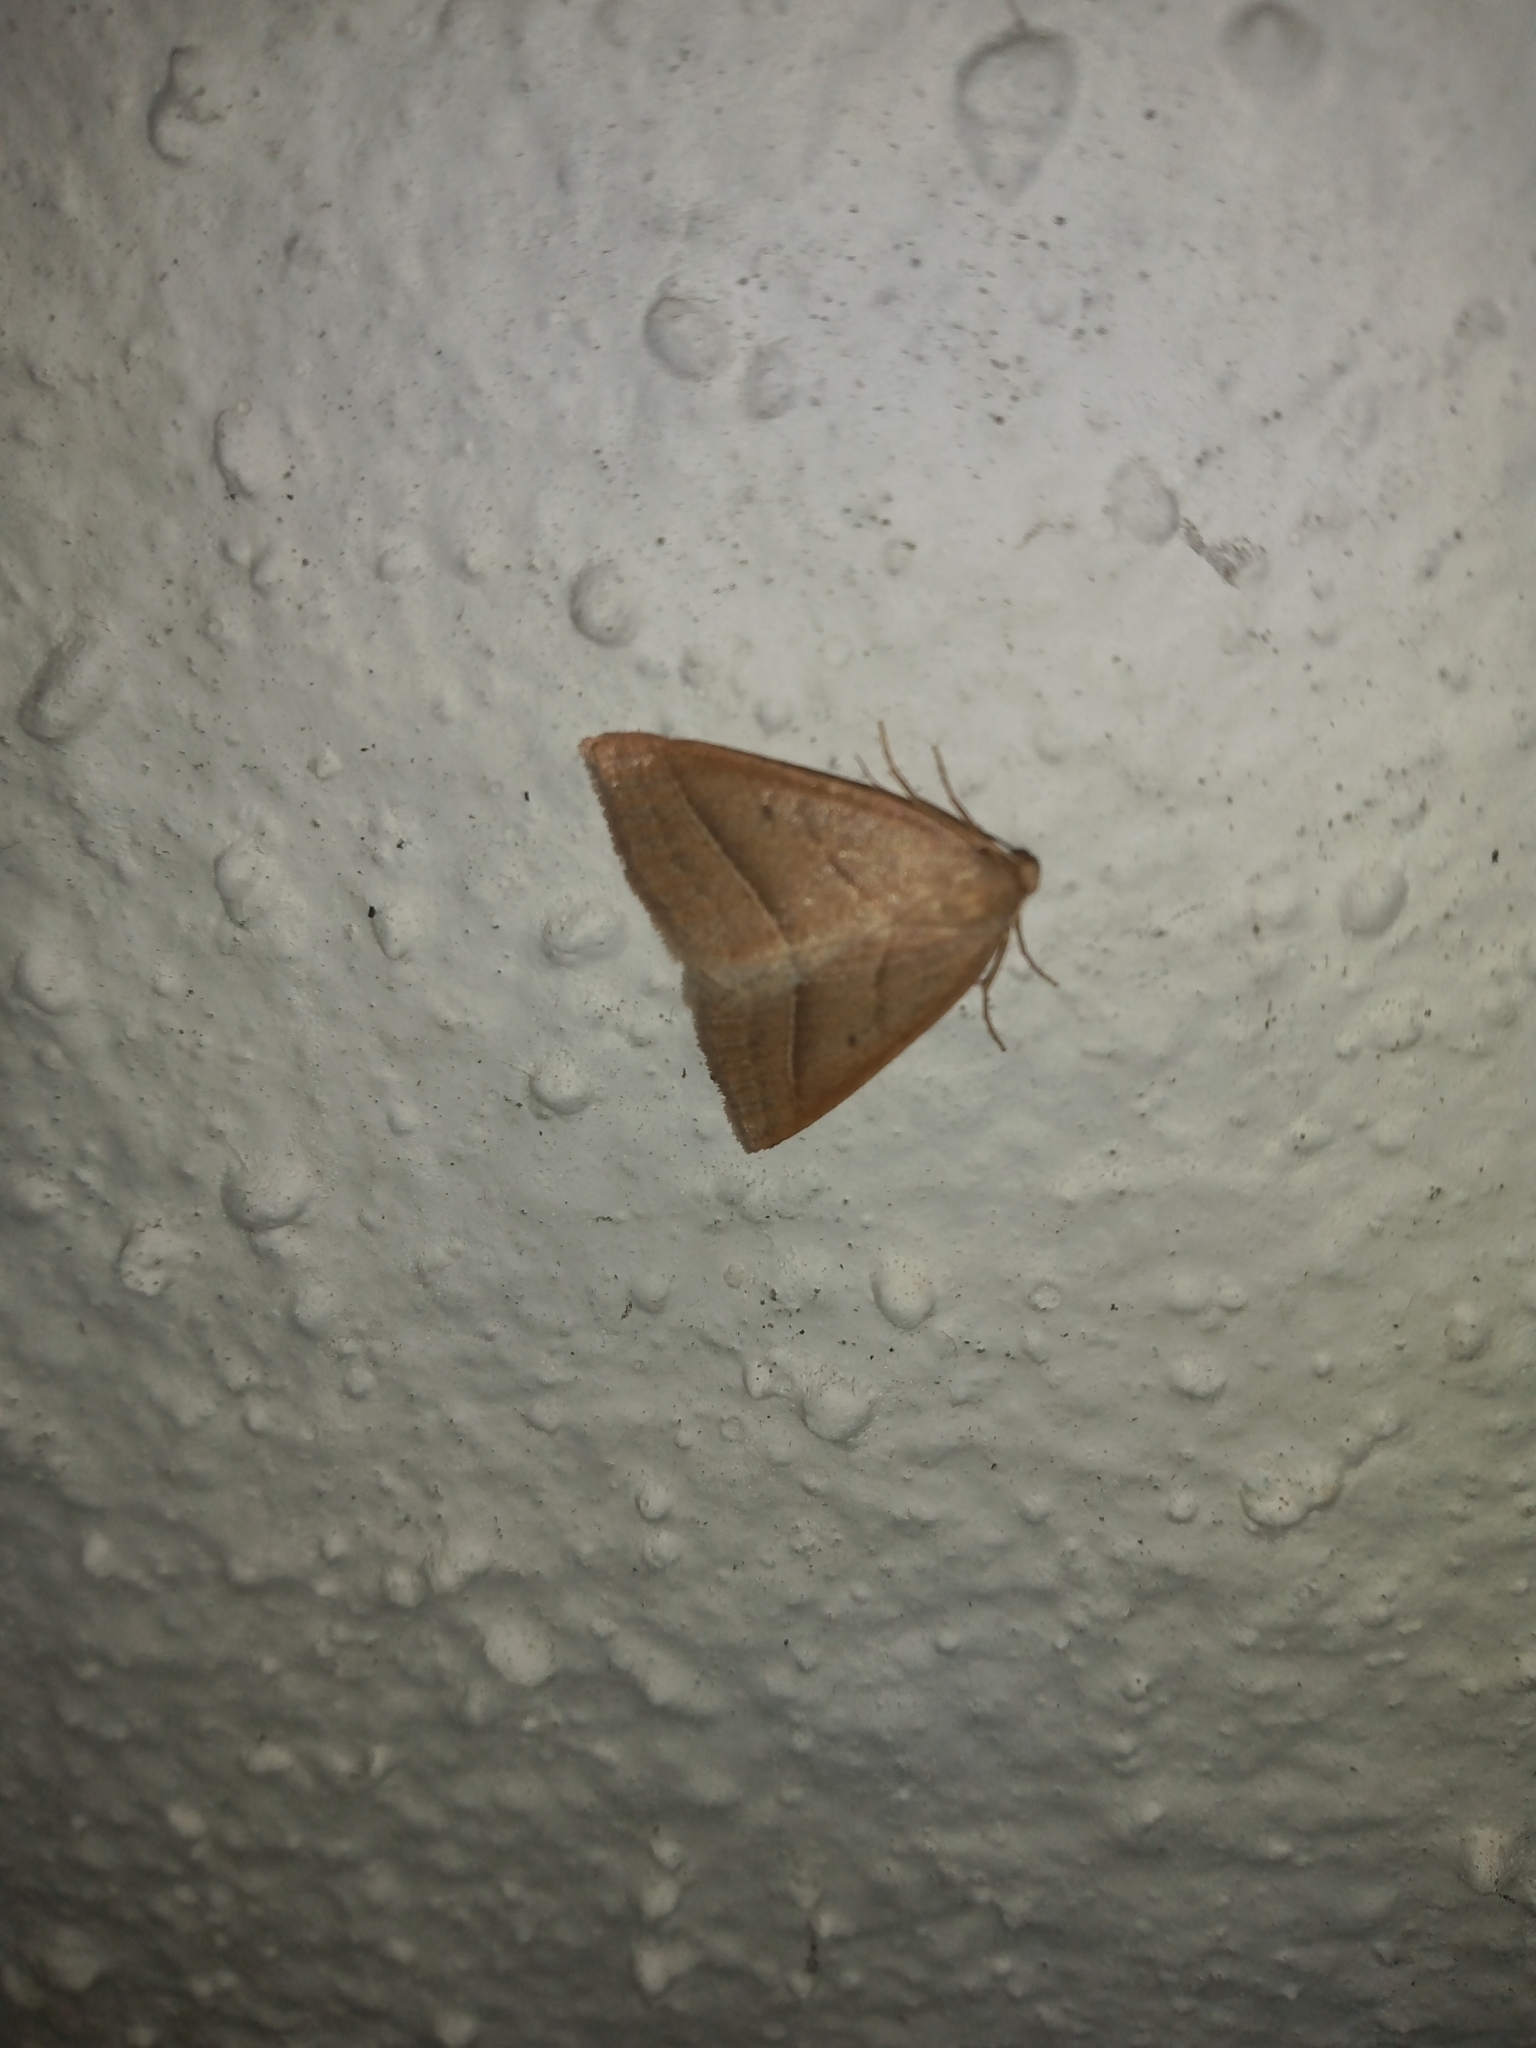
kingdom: Animalia
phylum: Arthropoda
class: Insecta
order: Lepidoptera
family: Pterophoridae
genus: Pterophorus
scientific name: Pterophorus Petrophora chlorosata
